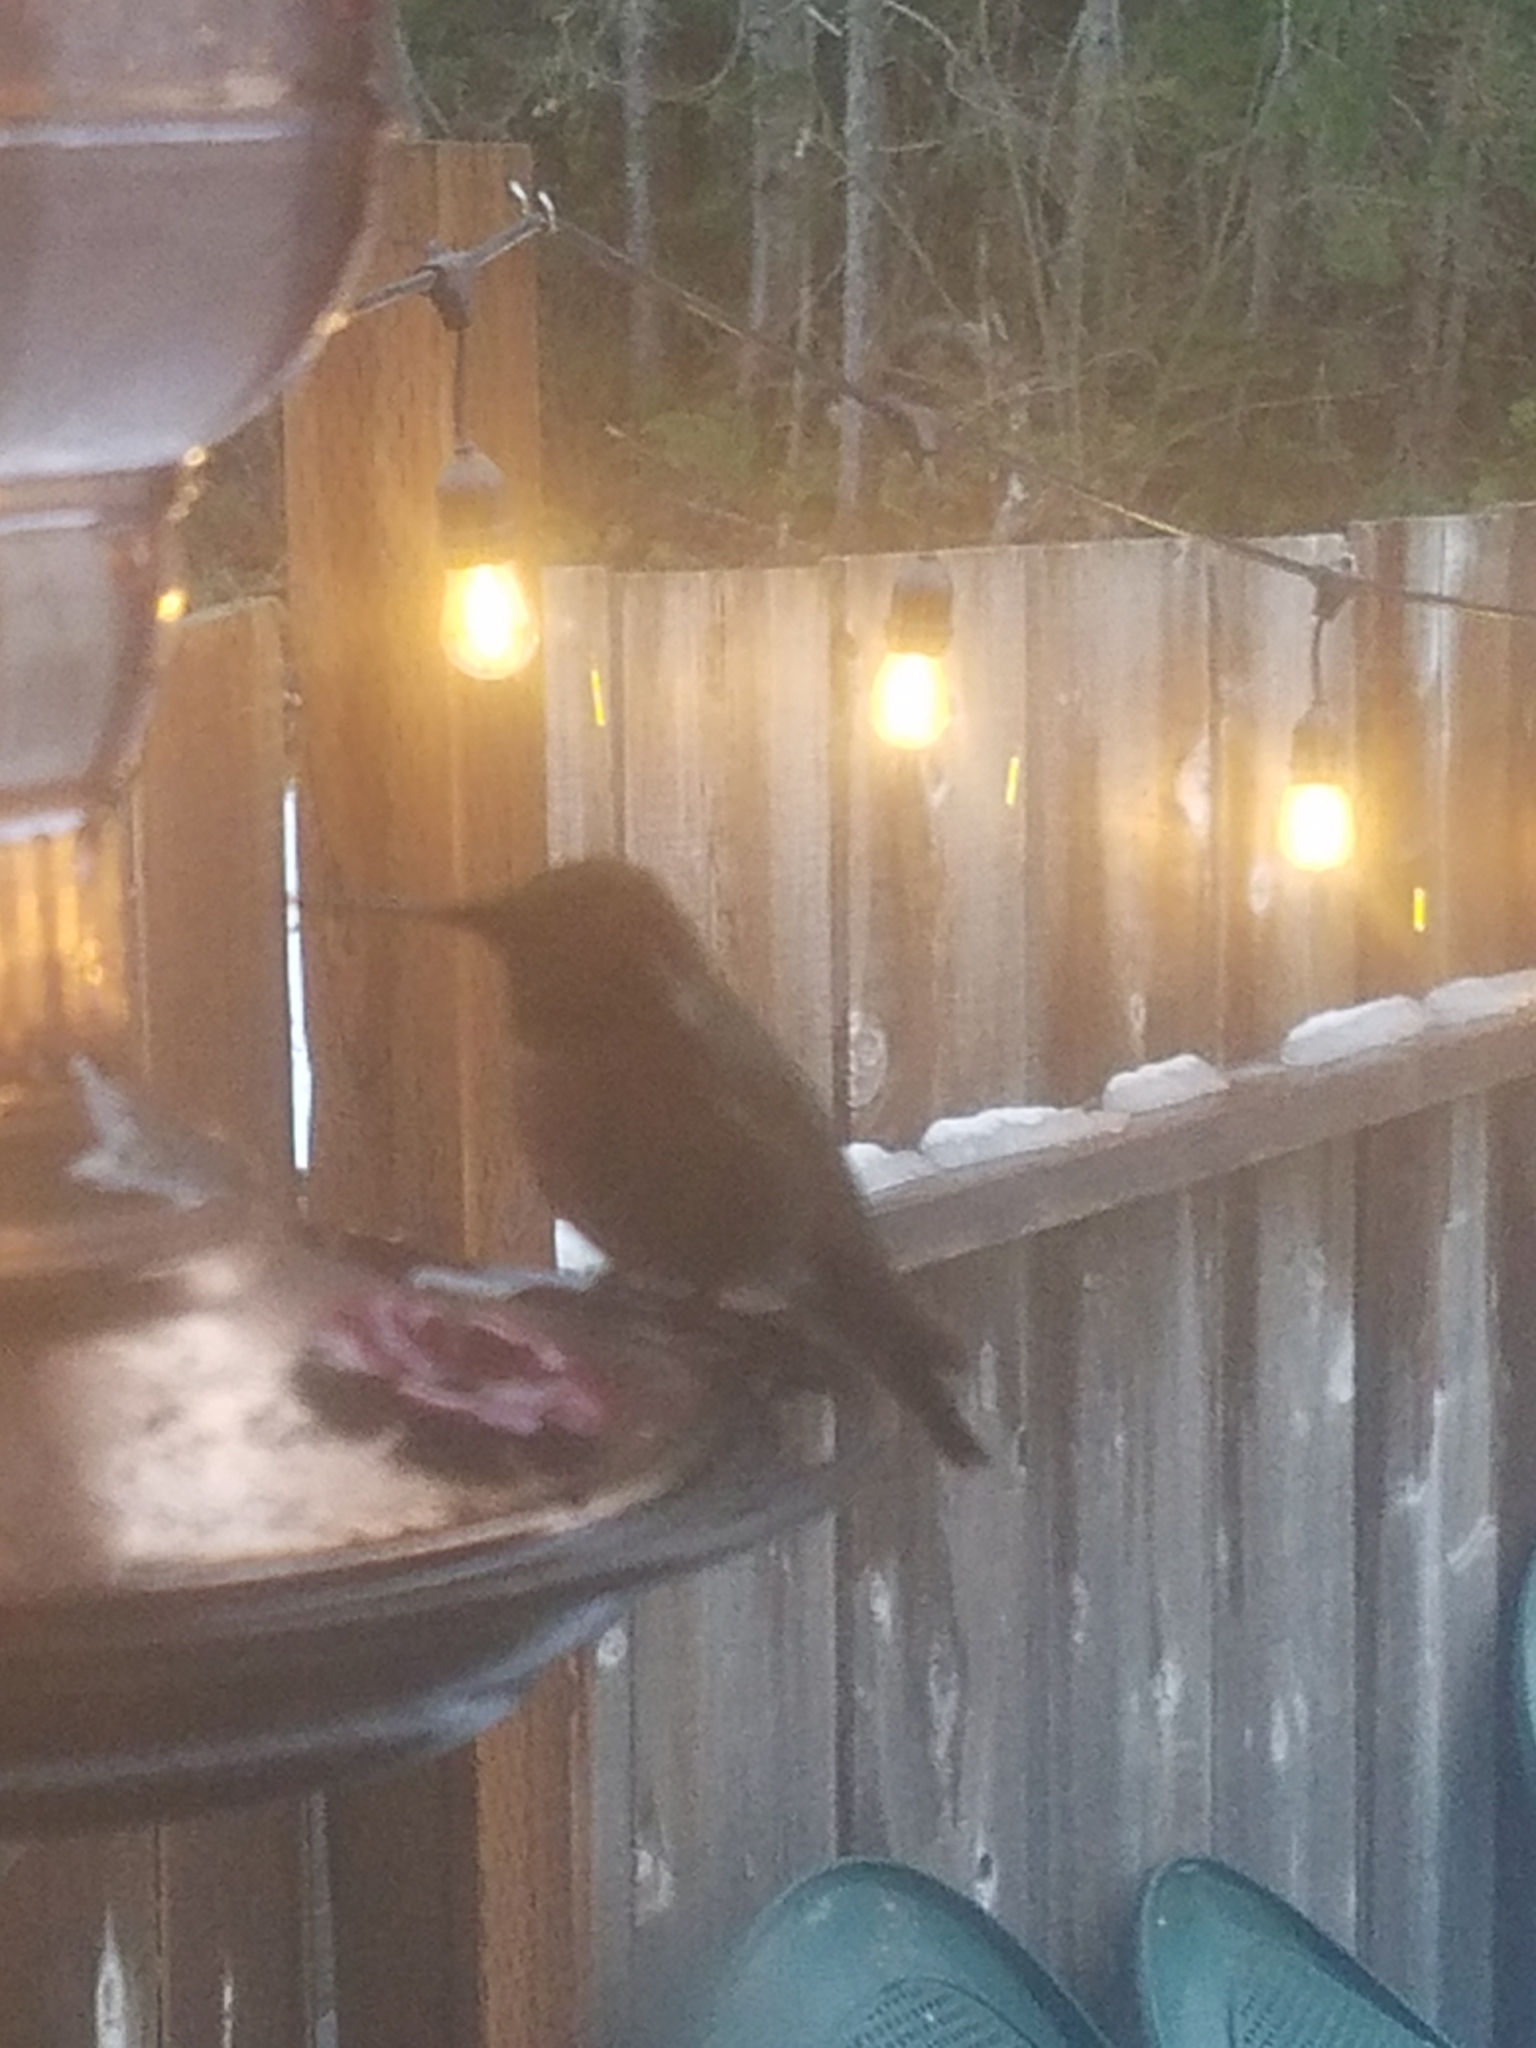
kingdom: Animalia
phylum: Chordata
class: Aves
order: Apodiformes
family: Trochilidae
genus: Calypte
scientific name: Calypte anna
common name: Anna's hummingbird
